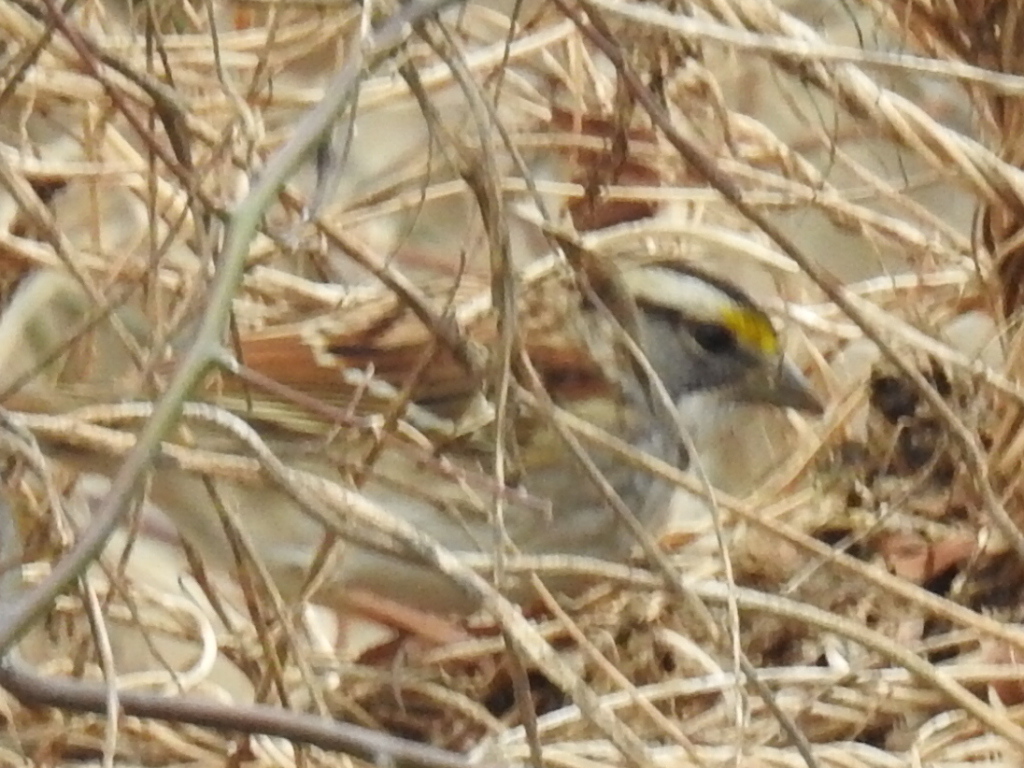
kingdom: Animalia
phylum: Chordata
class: Aves
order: Passeriformes
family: Passerellidae
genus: Zonotrichia
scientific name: Zonotrichia albicollis
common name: White-throated sparrow
